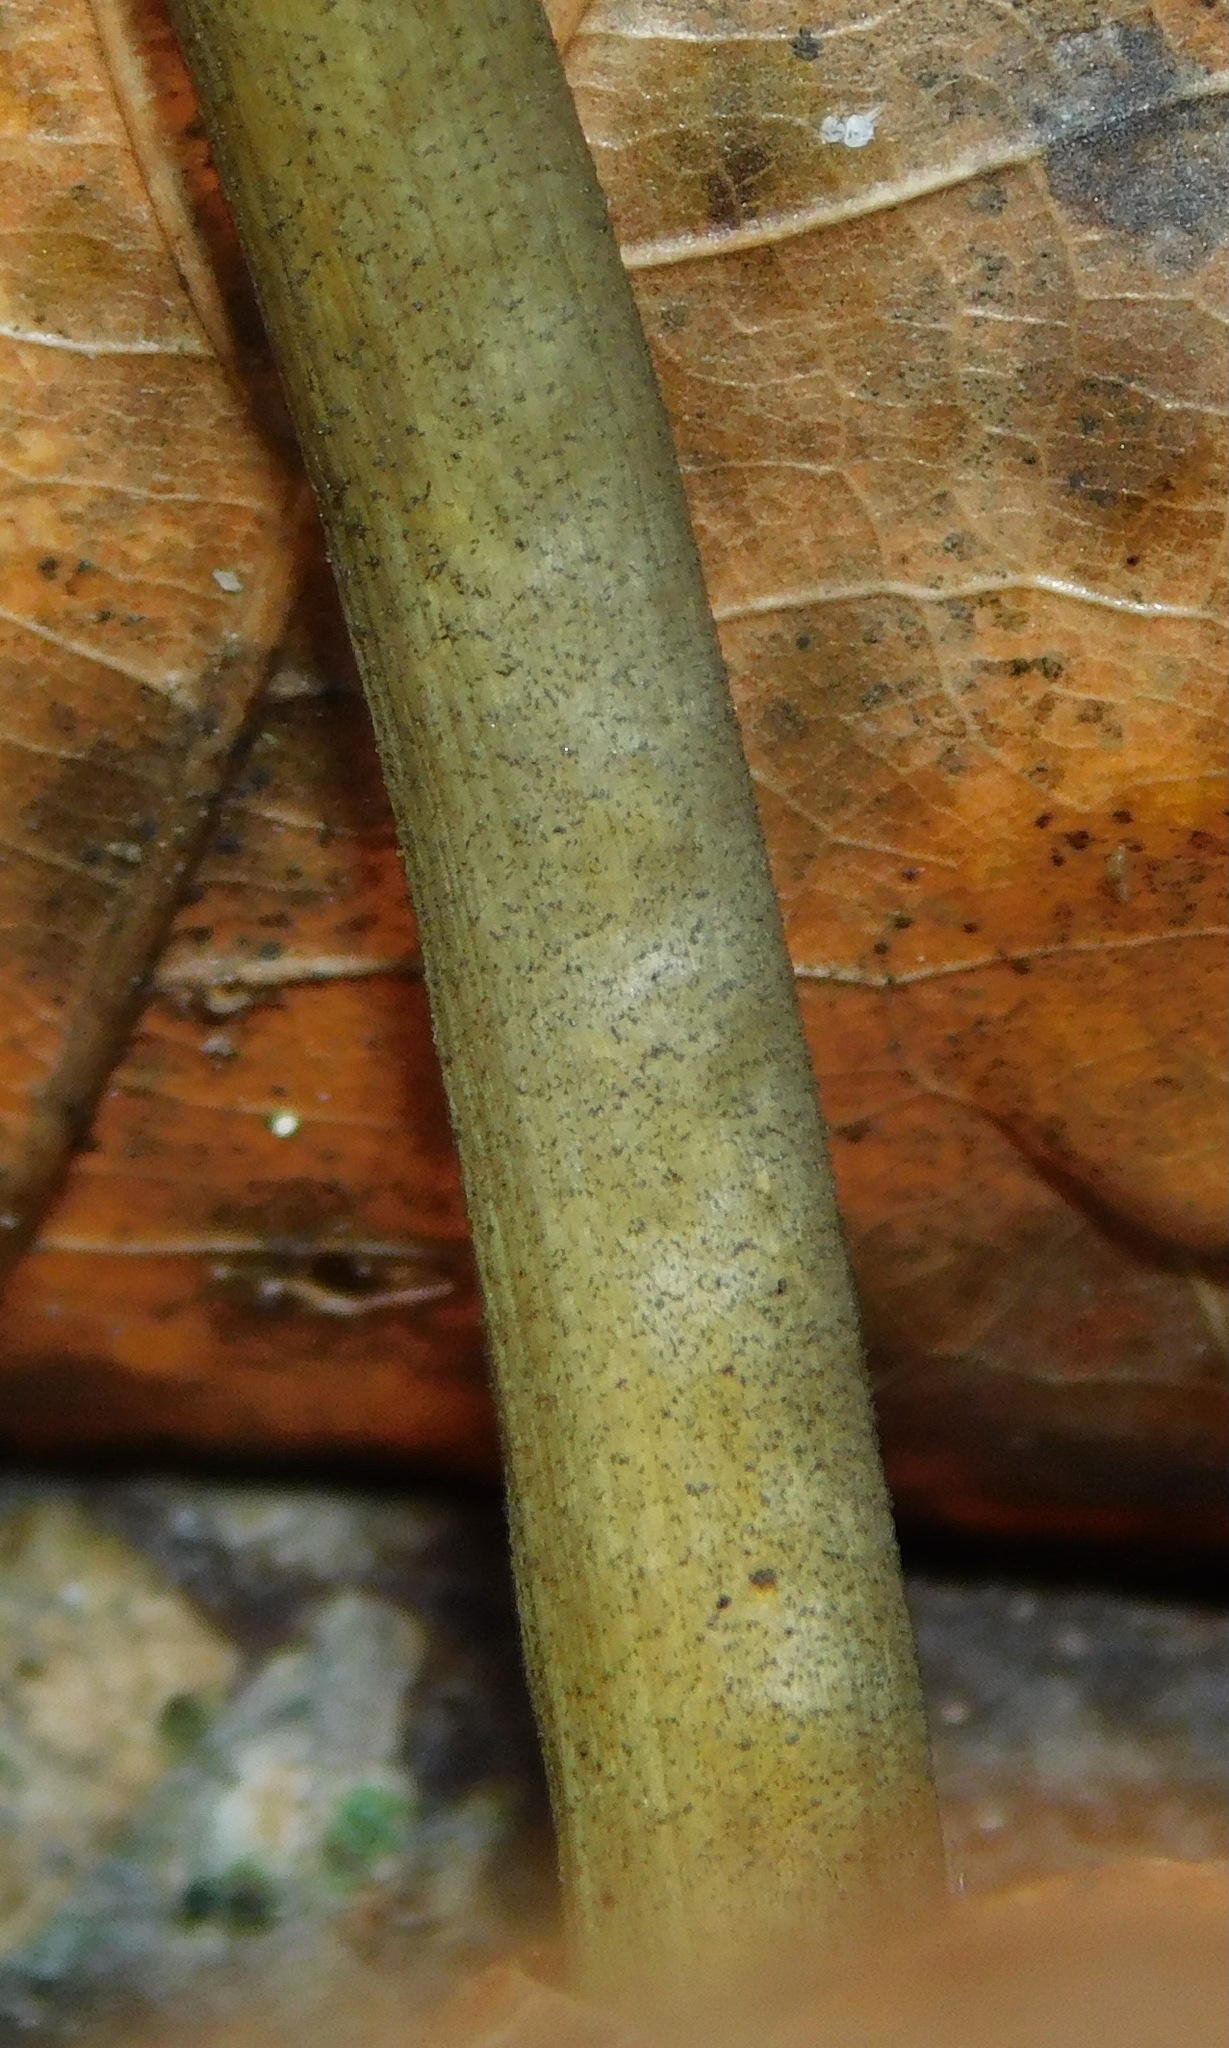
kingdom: Fungi
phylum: Ascomycota
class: Sordariomycetes
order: Hypocreales
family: Ophiocordycipitaceae
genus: Tolypocladium
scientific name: Tolypocladium longisegmentatum
